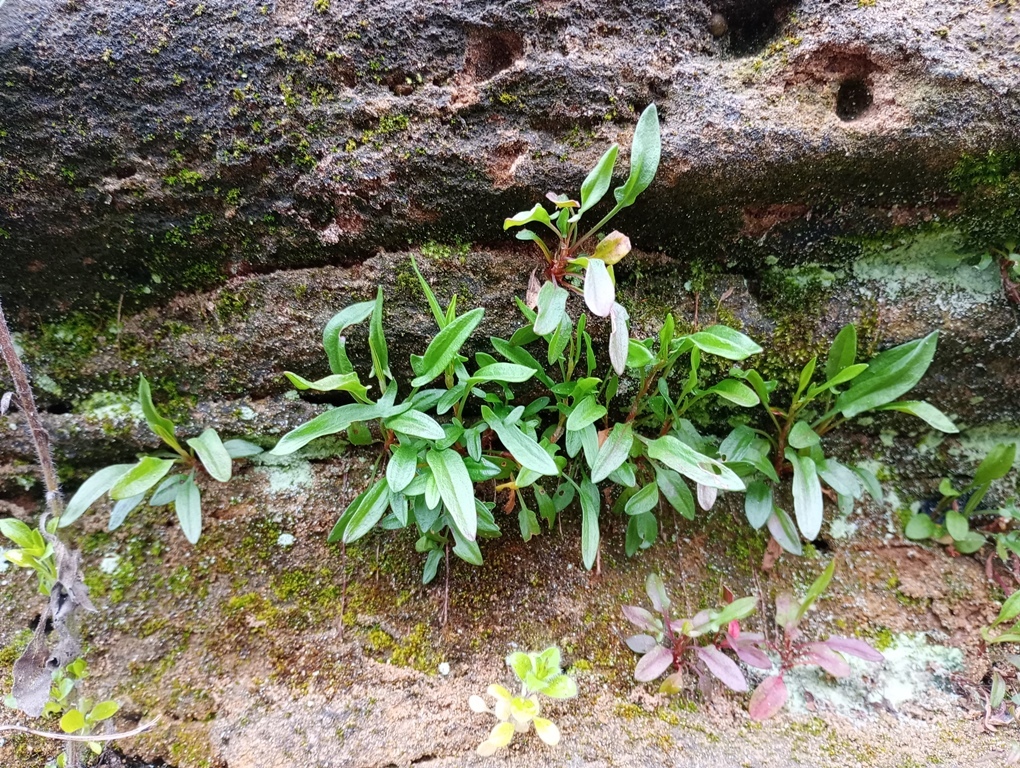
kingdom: Plantae
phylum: Tracheophyta
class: Magnoliopsida
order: Caryophyllales
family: Polygonaceae
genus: Rumex
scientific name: Rumex acetosella
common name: Common sheep sorrel
